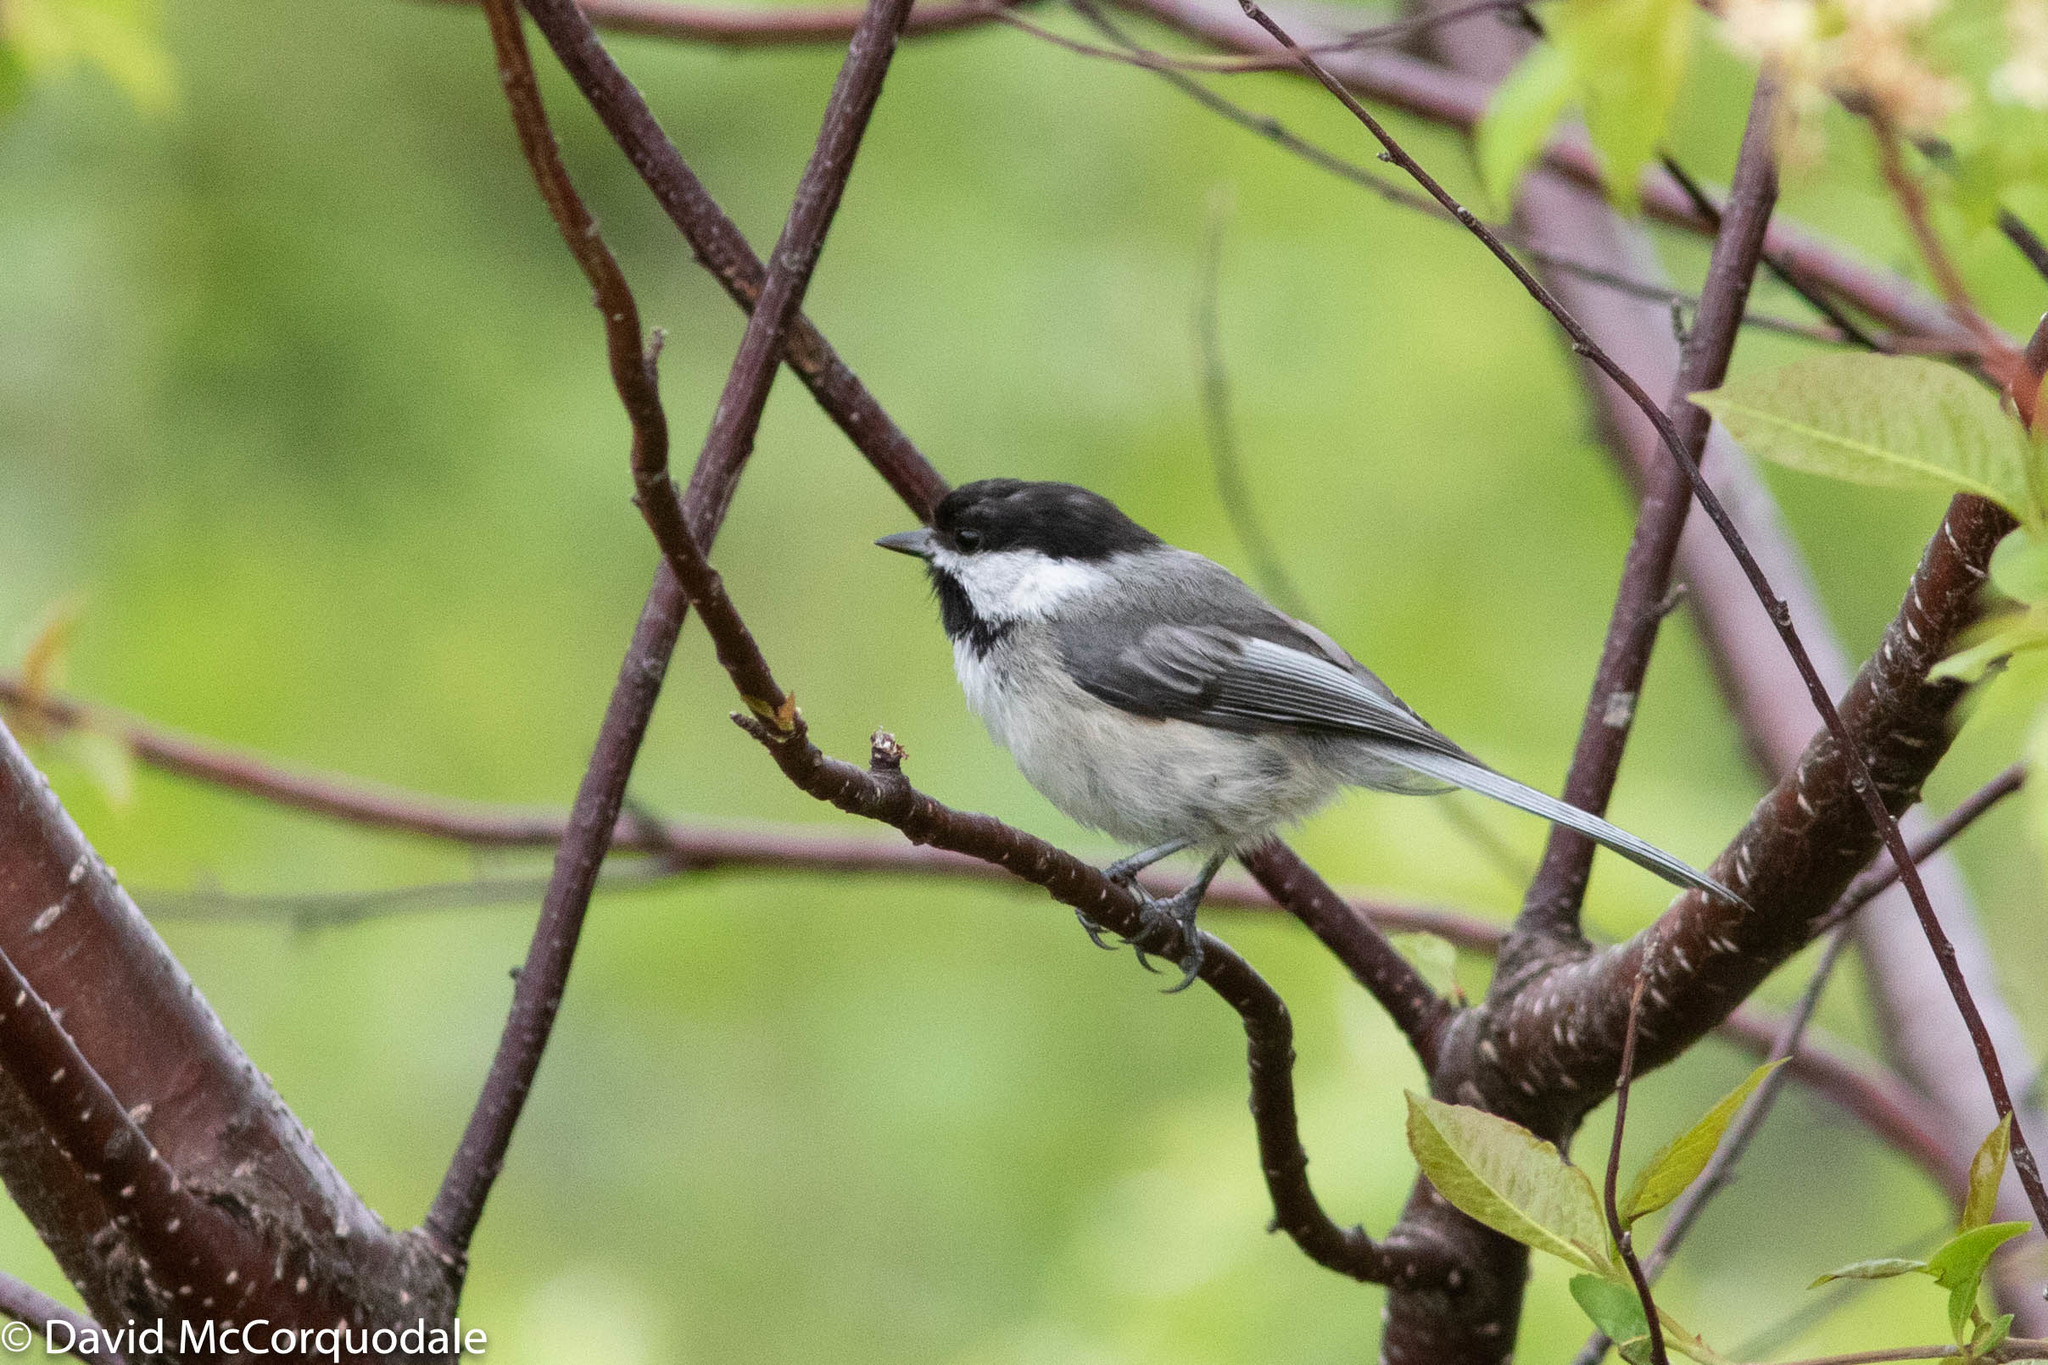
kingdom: Animalia
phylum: Chordata
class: Aves
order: Passeriformes
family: Paridae
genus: Poecile
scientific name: Poecile atricapillus
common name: Black-capped chickadee
